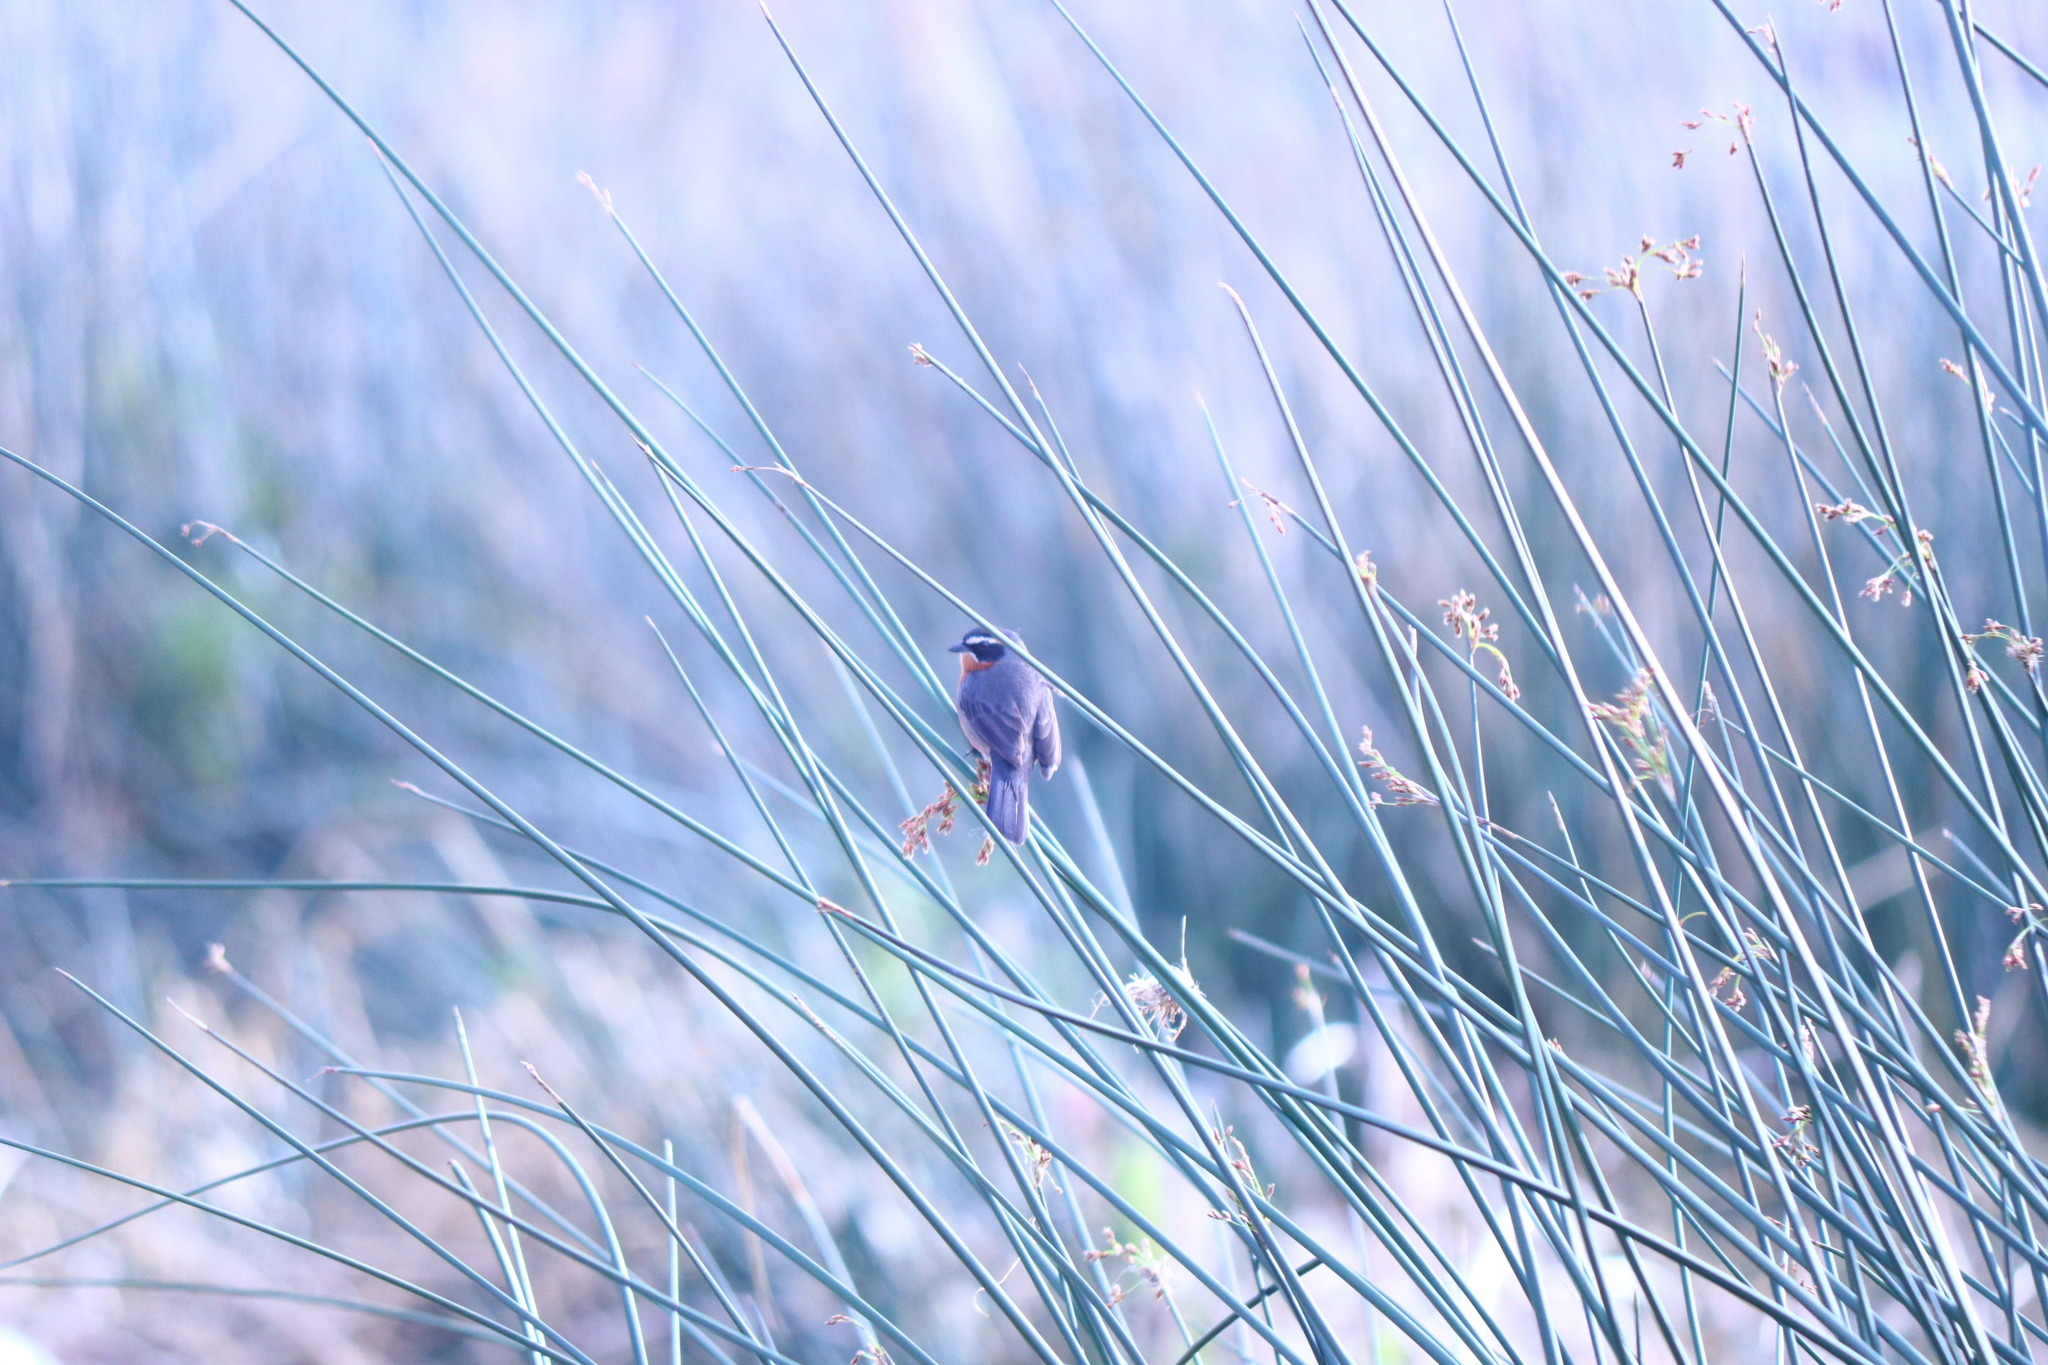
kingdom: Animalia
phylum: Chordata
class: Aves
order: Passeriformes
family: Thraupidae
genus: Poospiza
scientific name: Poospiza nigrorufa
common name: Black-and-rufous warbling finch
